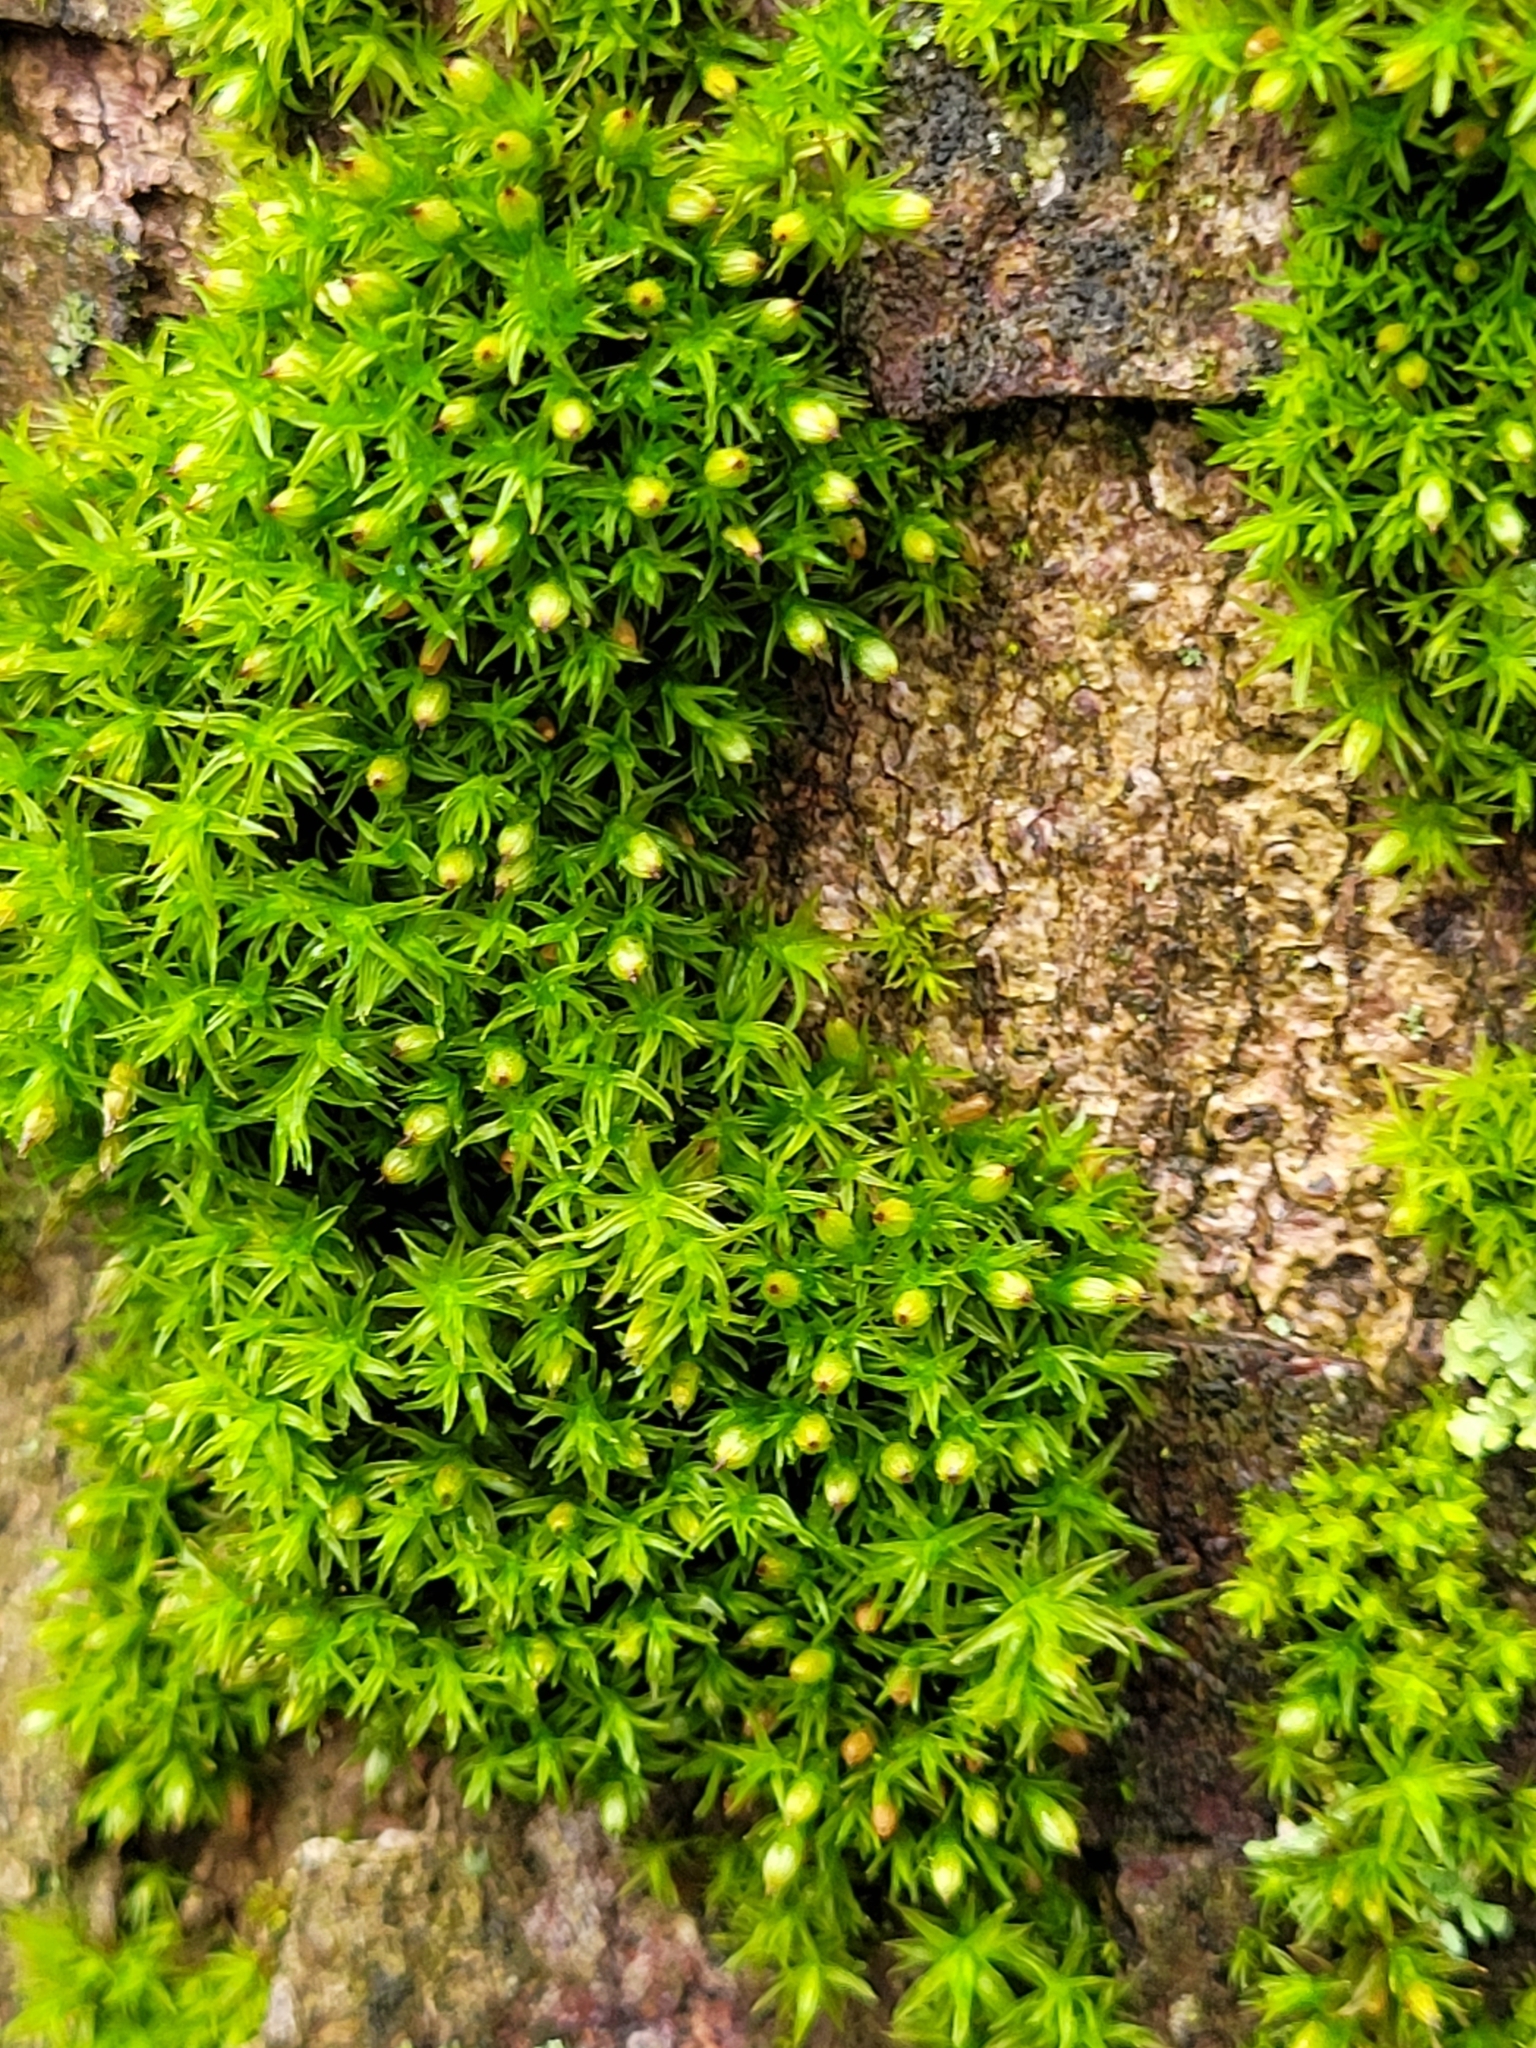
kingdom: Plantae
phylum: Bryophyta
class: Bryopsida
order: Orthotrichales
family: Orthotrichaceae
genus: Orthotrichum
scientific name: Orthotrichum stramineum
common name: Straw bristle-moss
